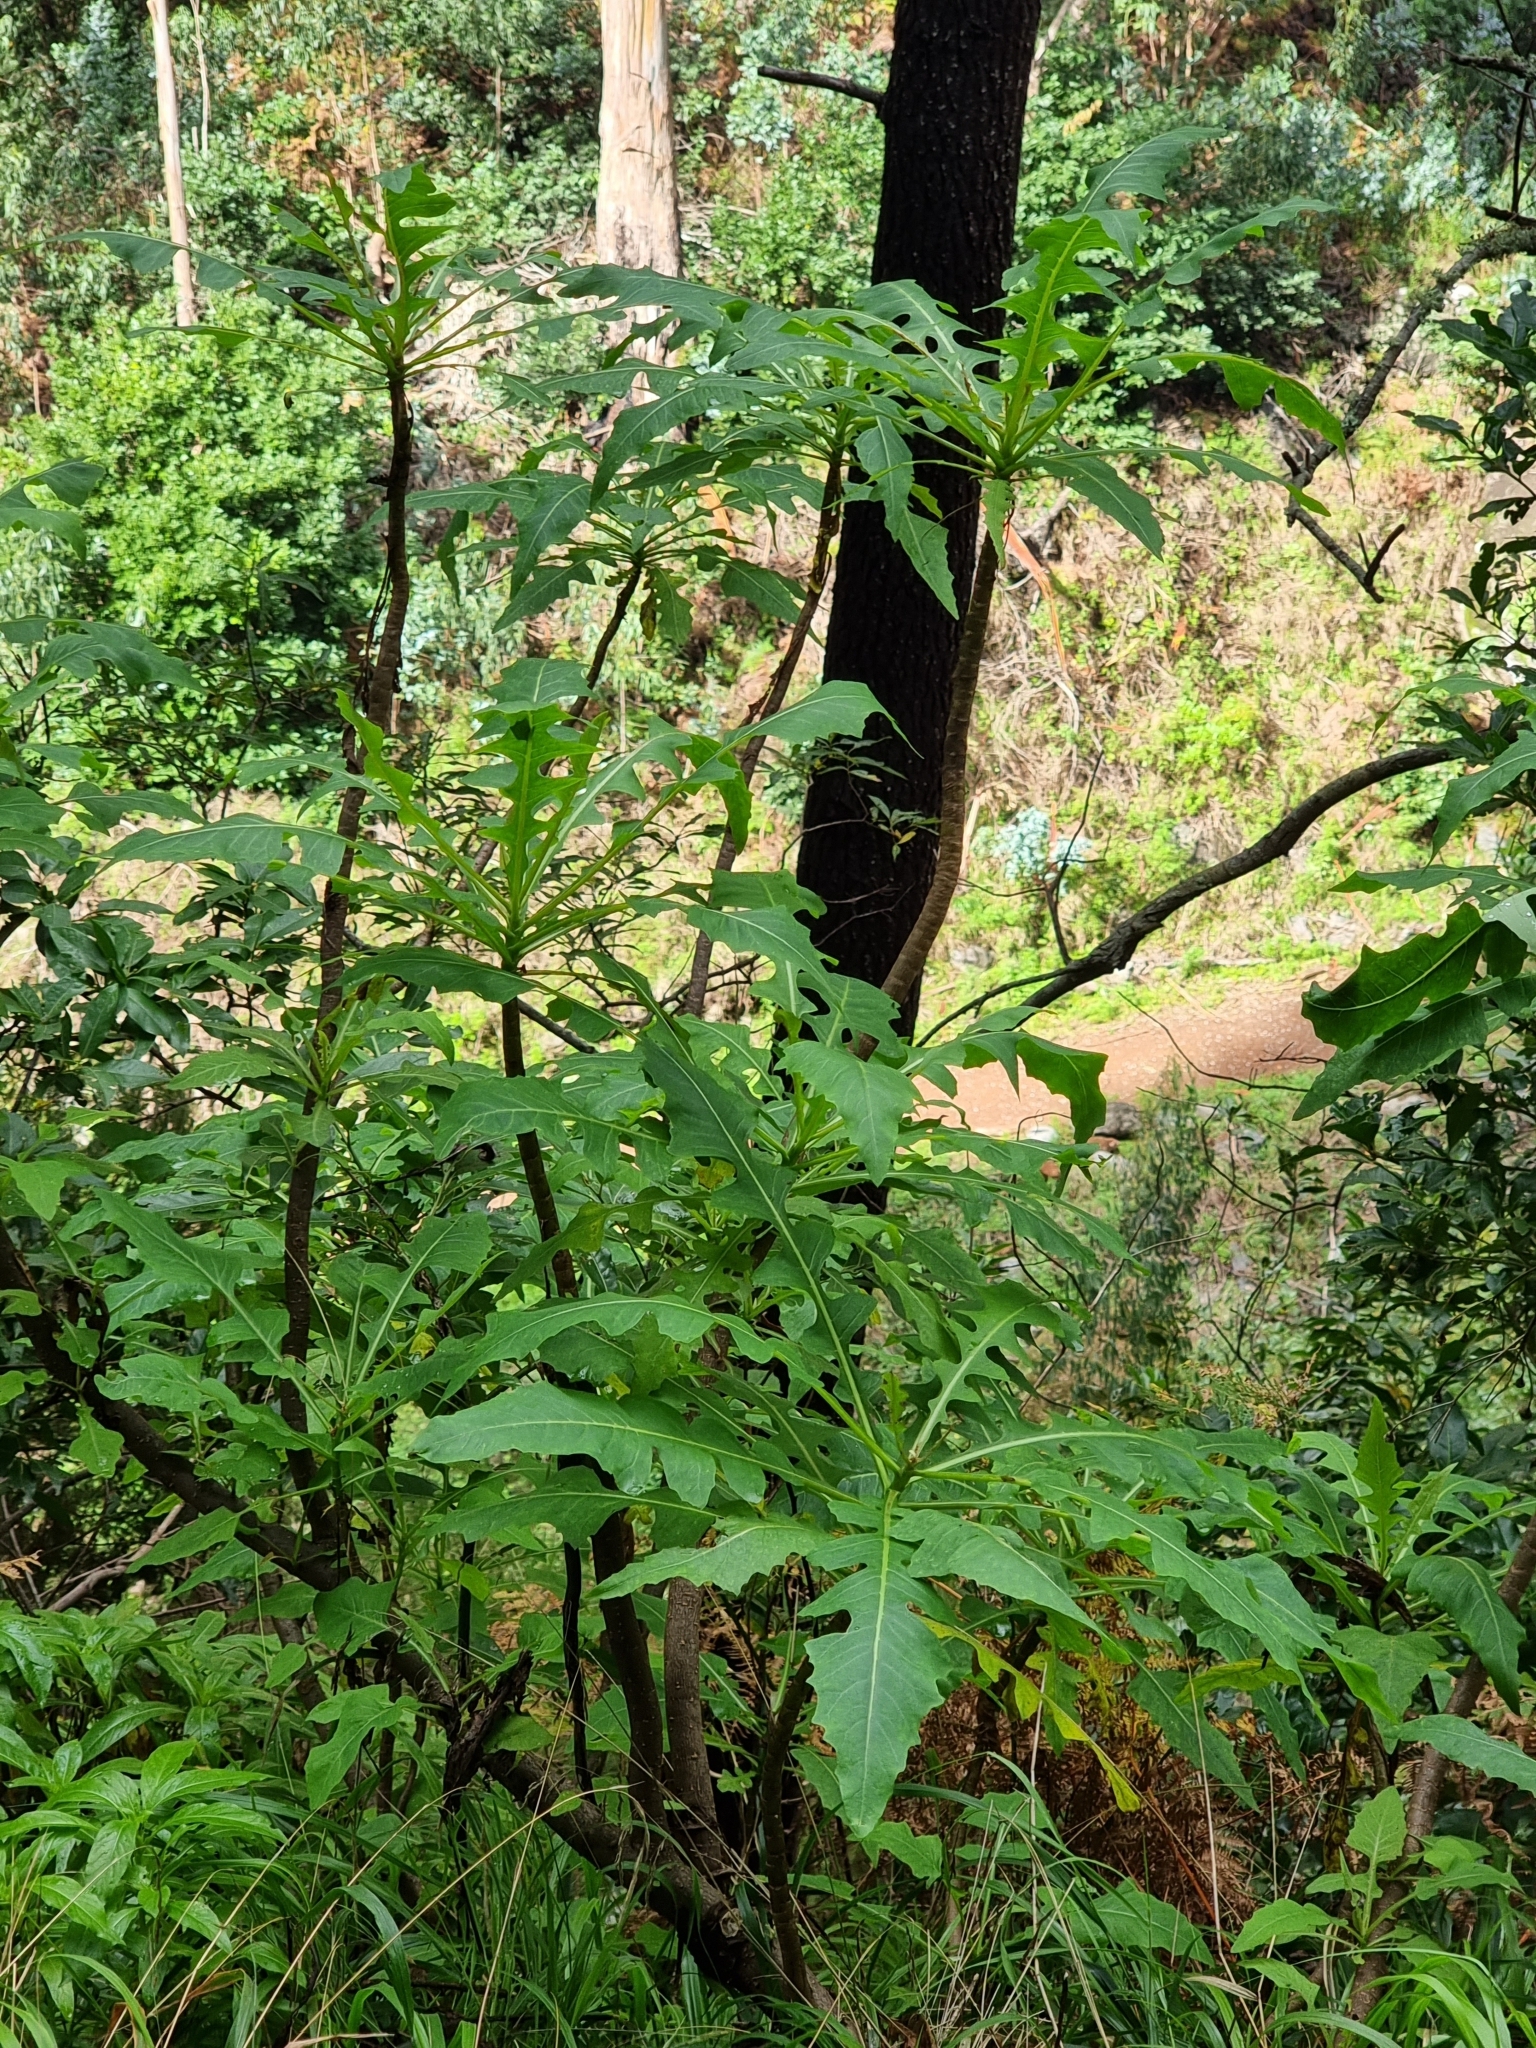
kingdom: Plantae
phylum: Tracheophyta
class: Magnoliopsida
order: Asterales
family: Asteraceae
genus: Sonchus
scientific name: Sonchus fruticosus
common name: Shrubby sow-thistle
